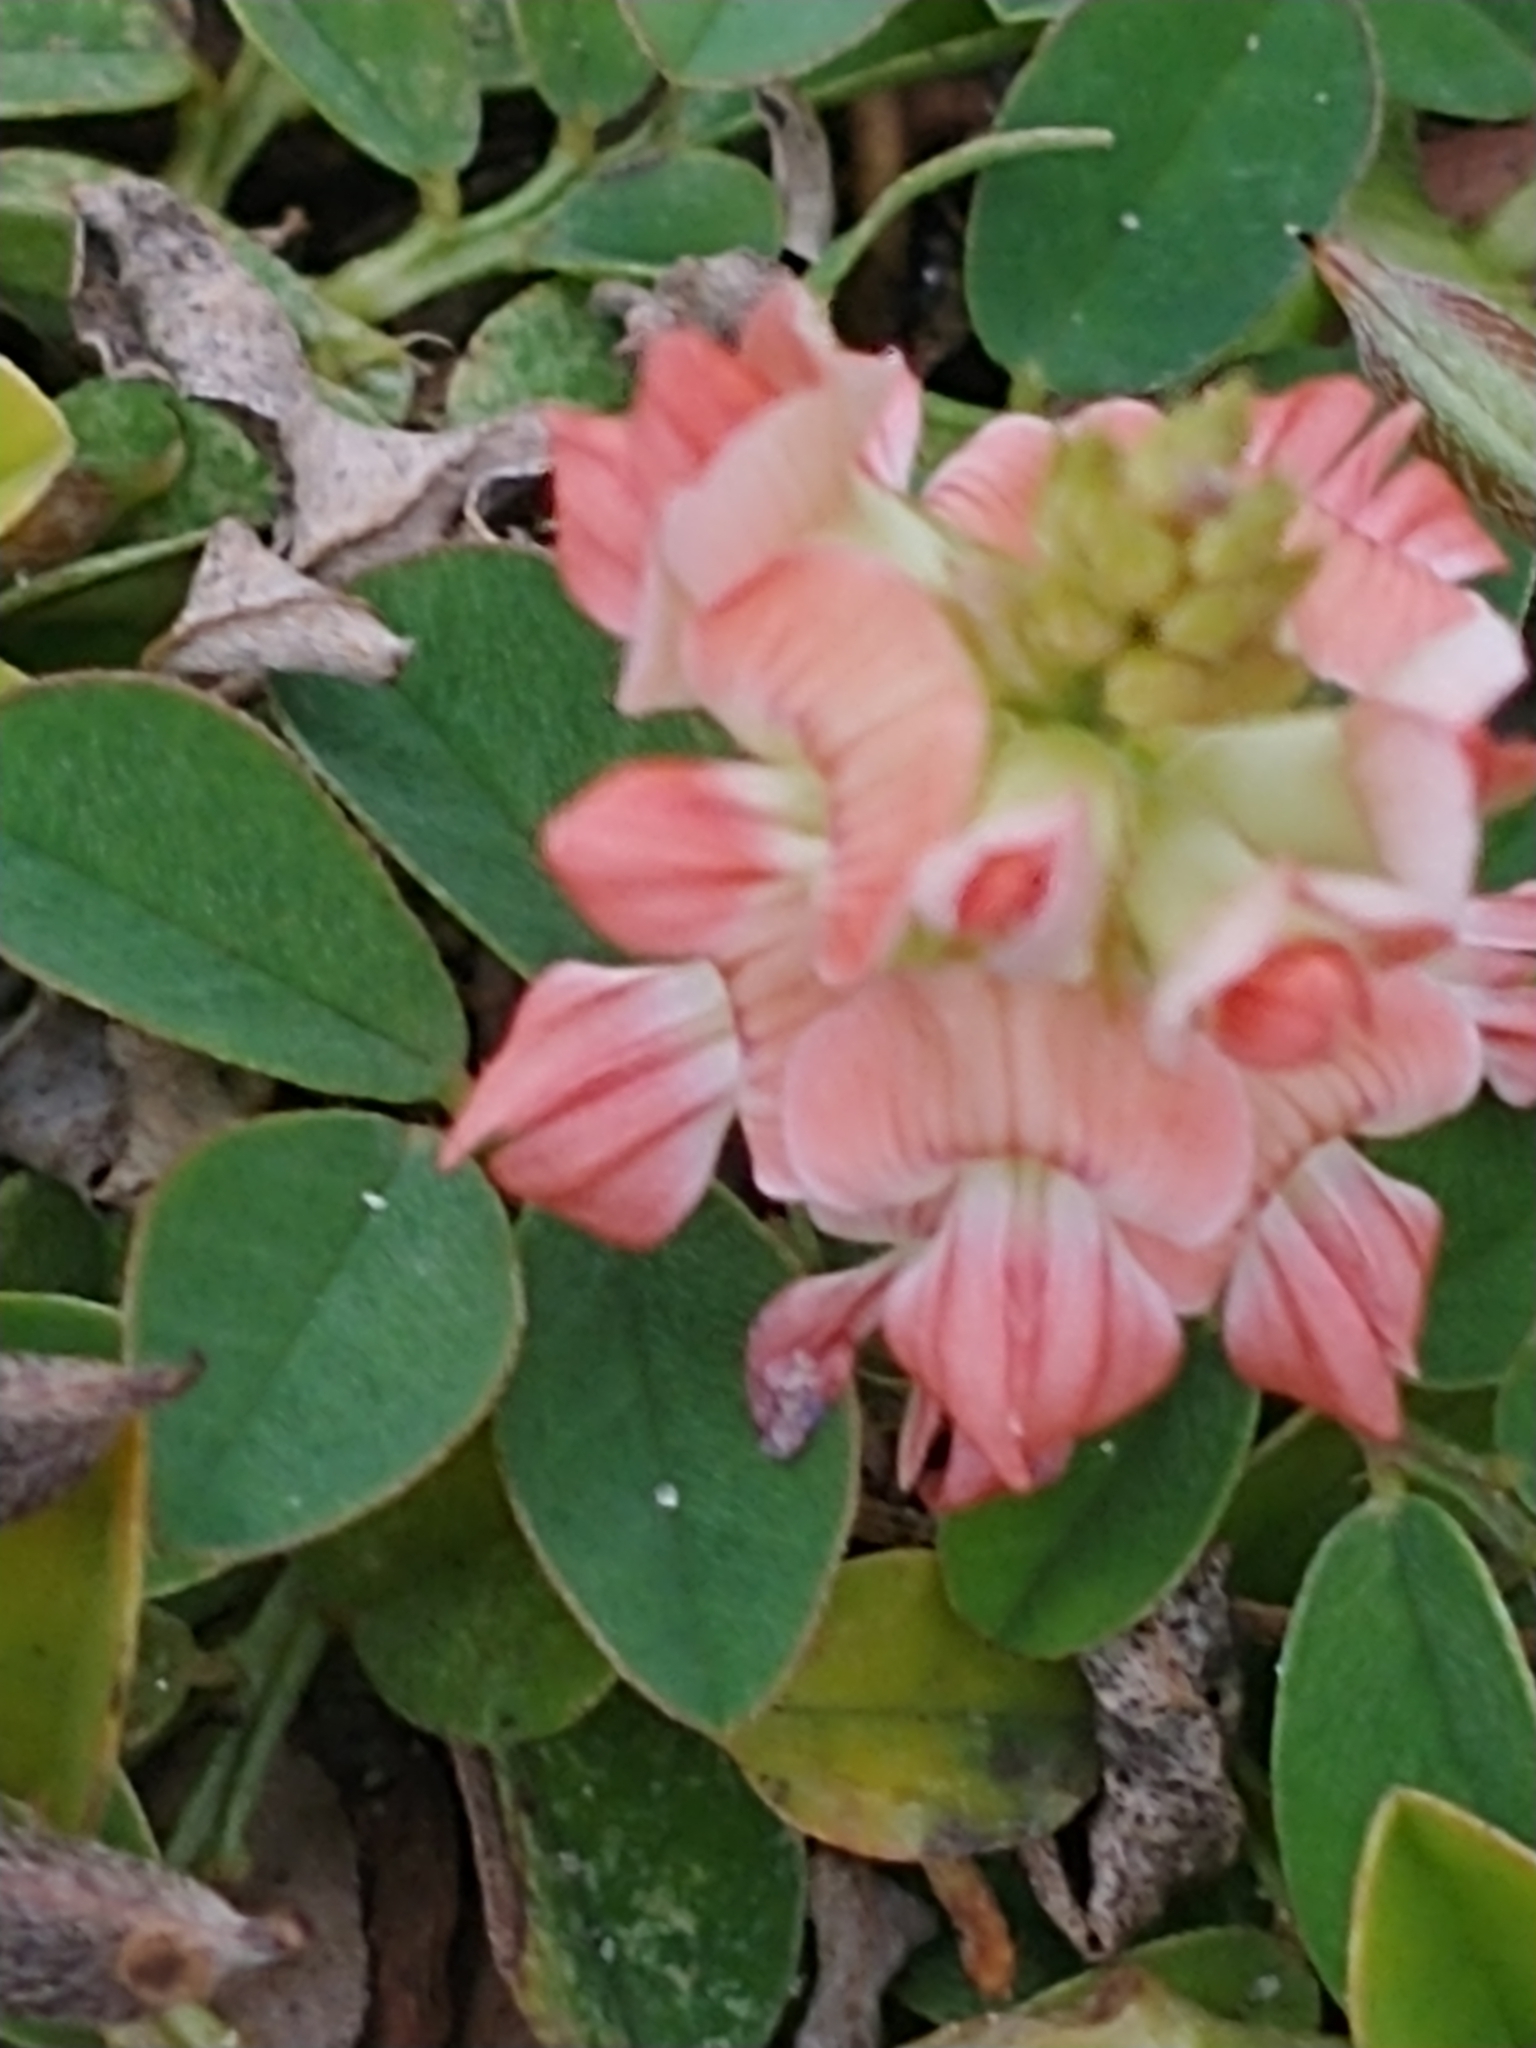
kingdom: Plantae
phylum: Tracheophyta
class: Magnoliopsida
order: Fabales
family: Fabaceae
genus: Indigofera
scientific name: Indigofera spicata
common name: Creeping indigo
